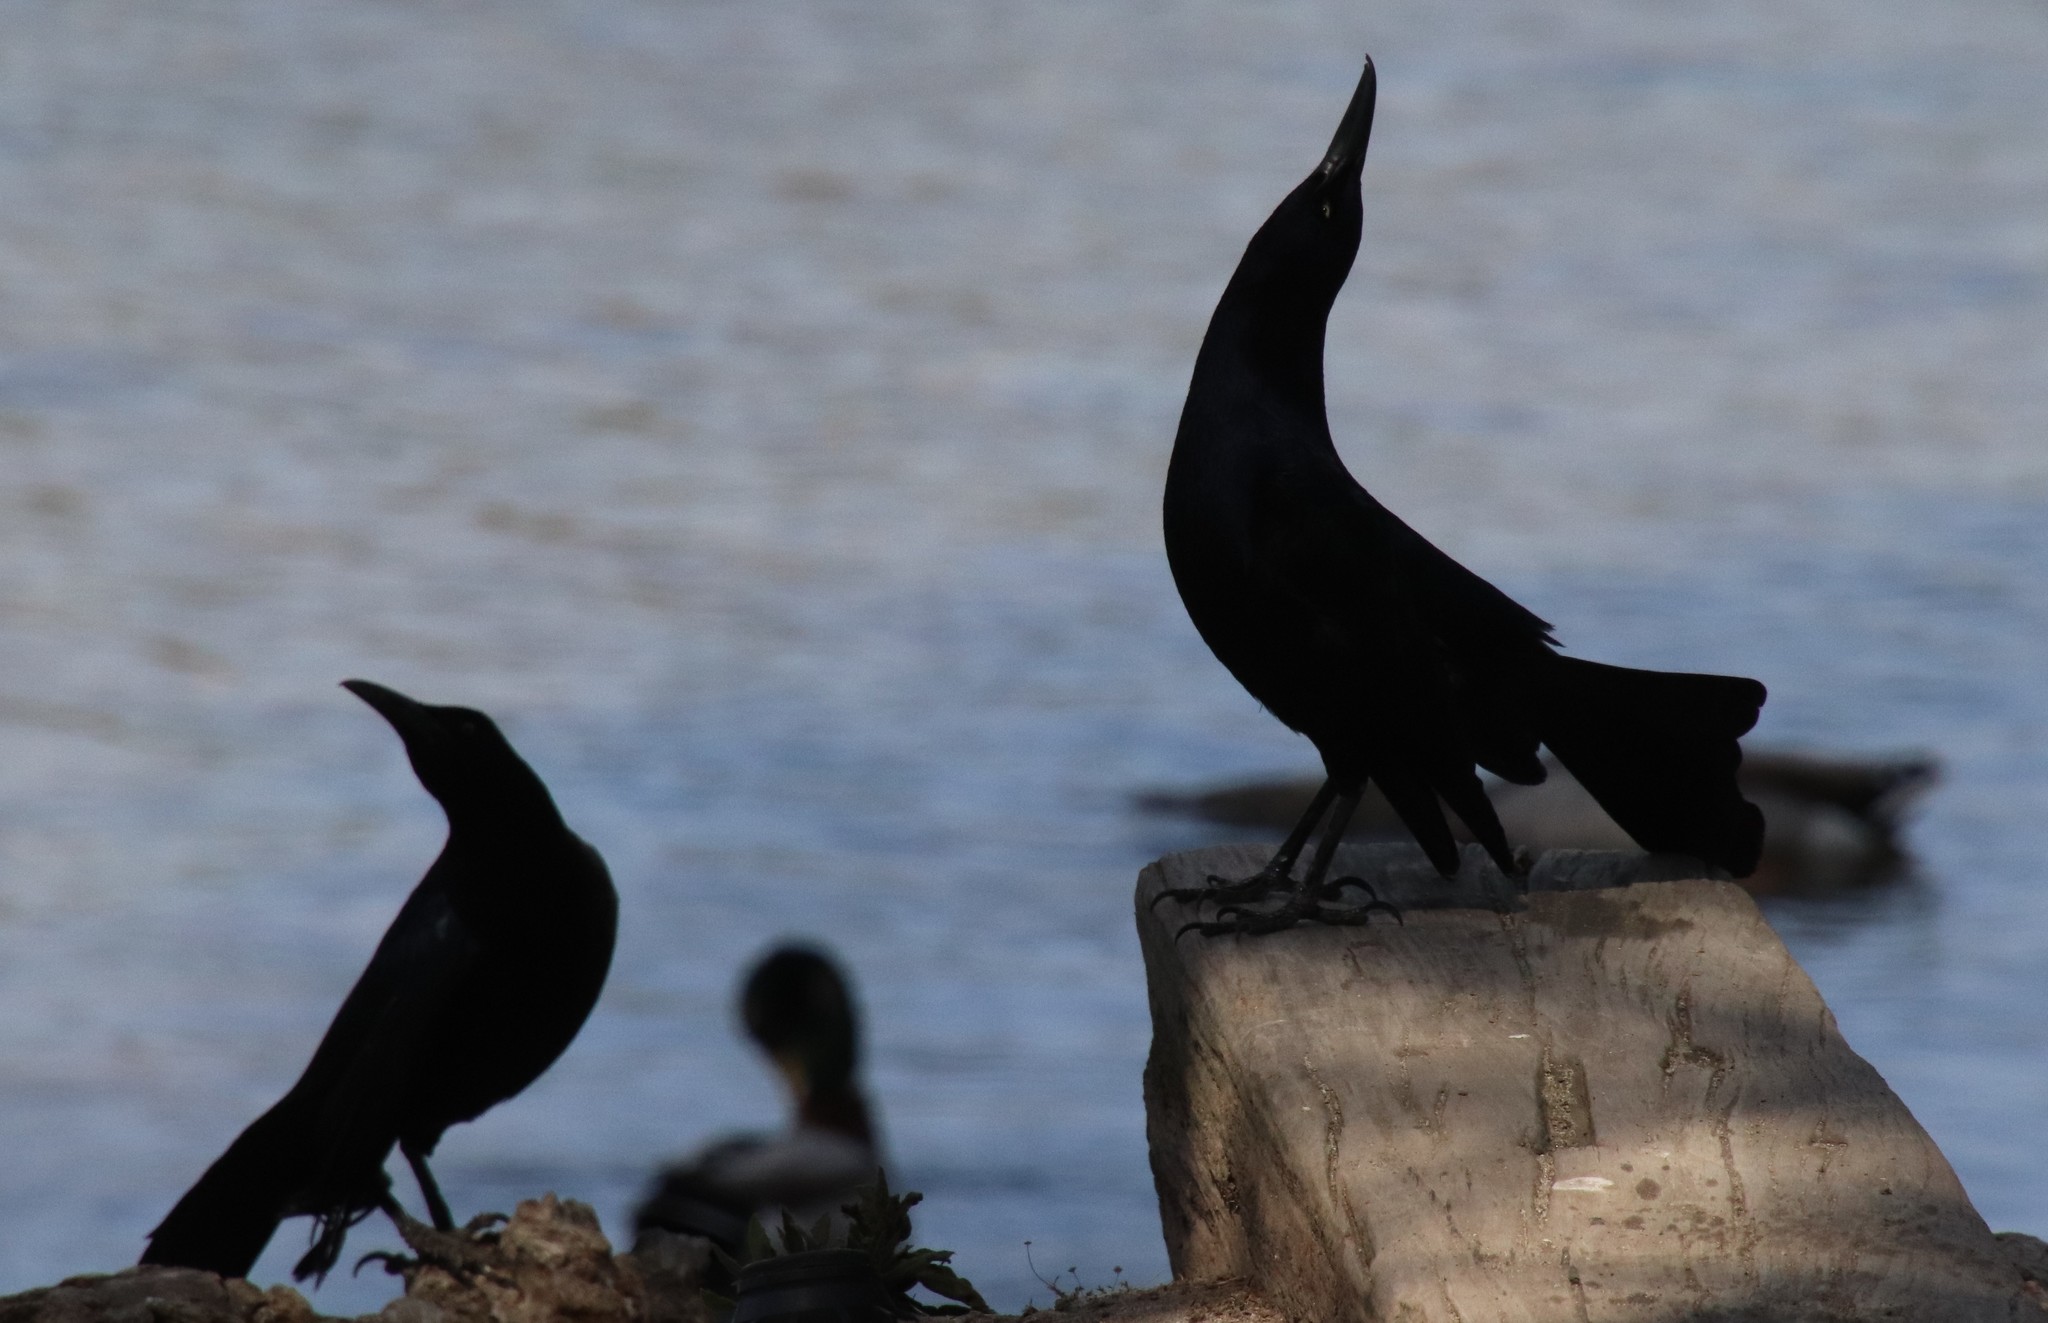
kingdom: Animalia
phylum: Chordata
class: Aves
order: Passeriformes
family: Icteridae
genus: Quiscalus
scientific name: Quiscalus mexicanus
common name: Great-tailed grackle
